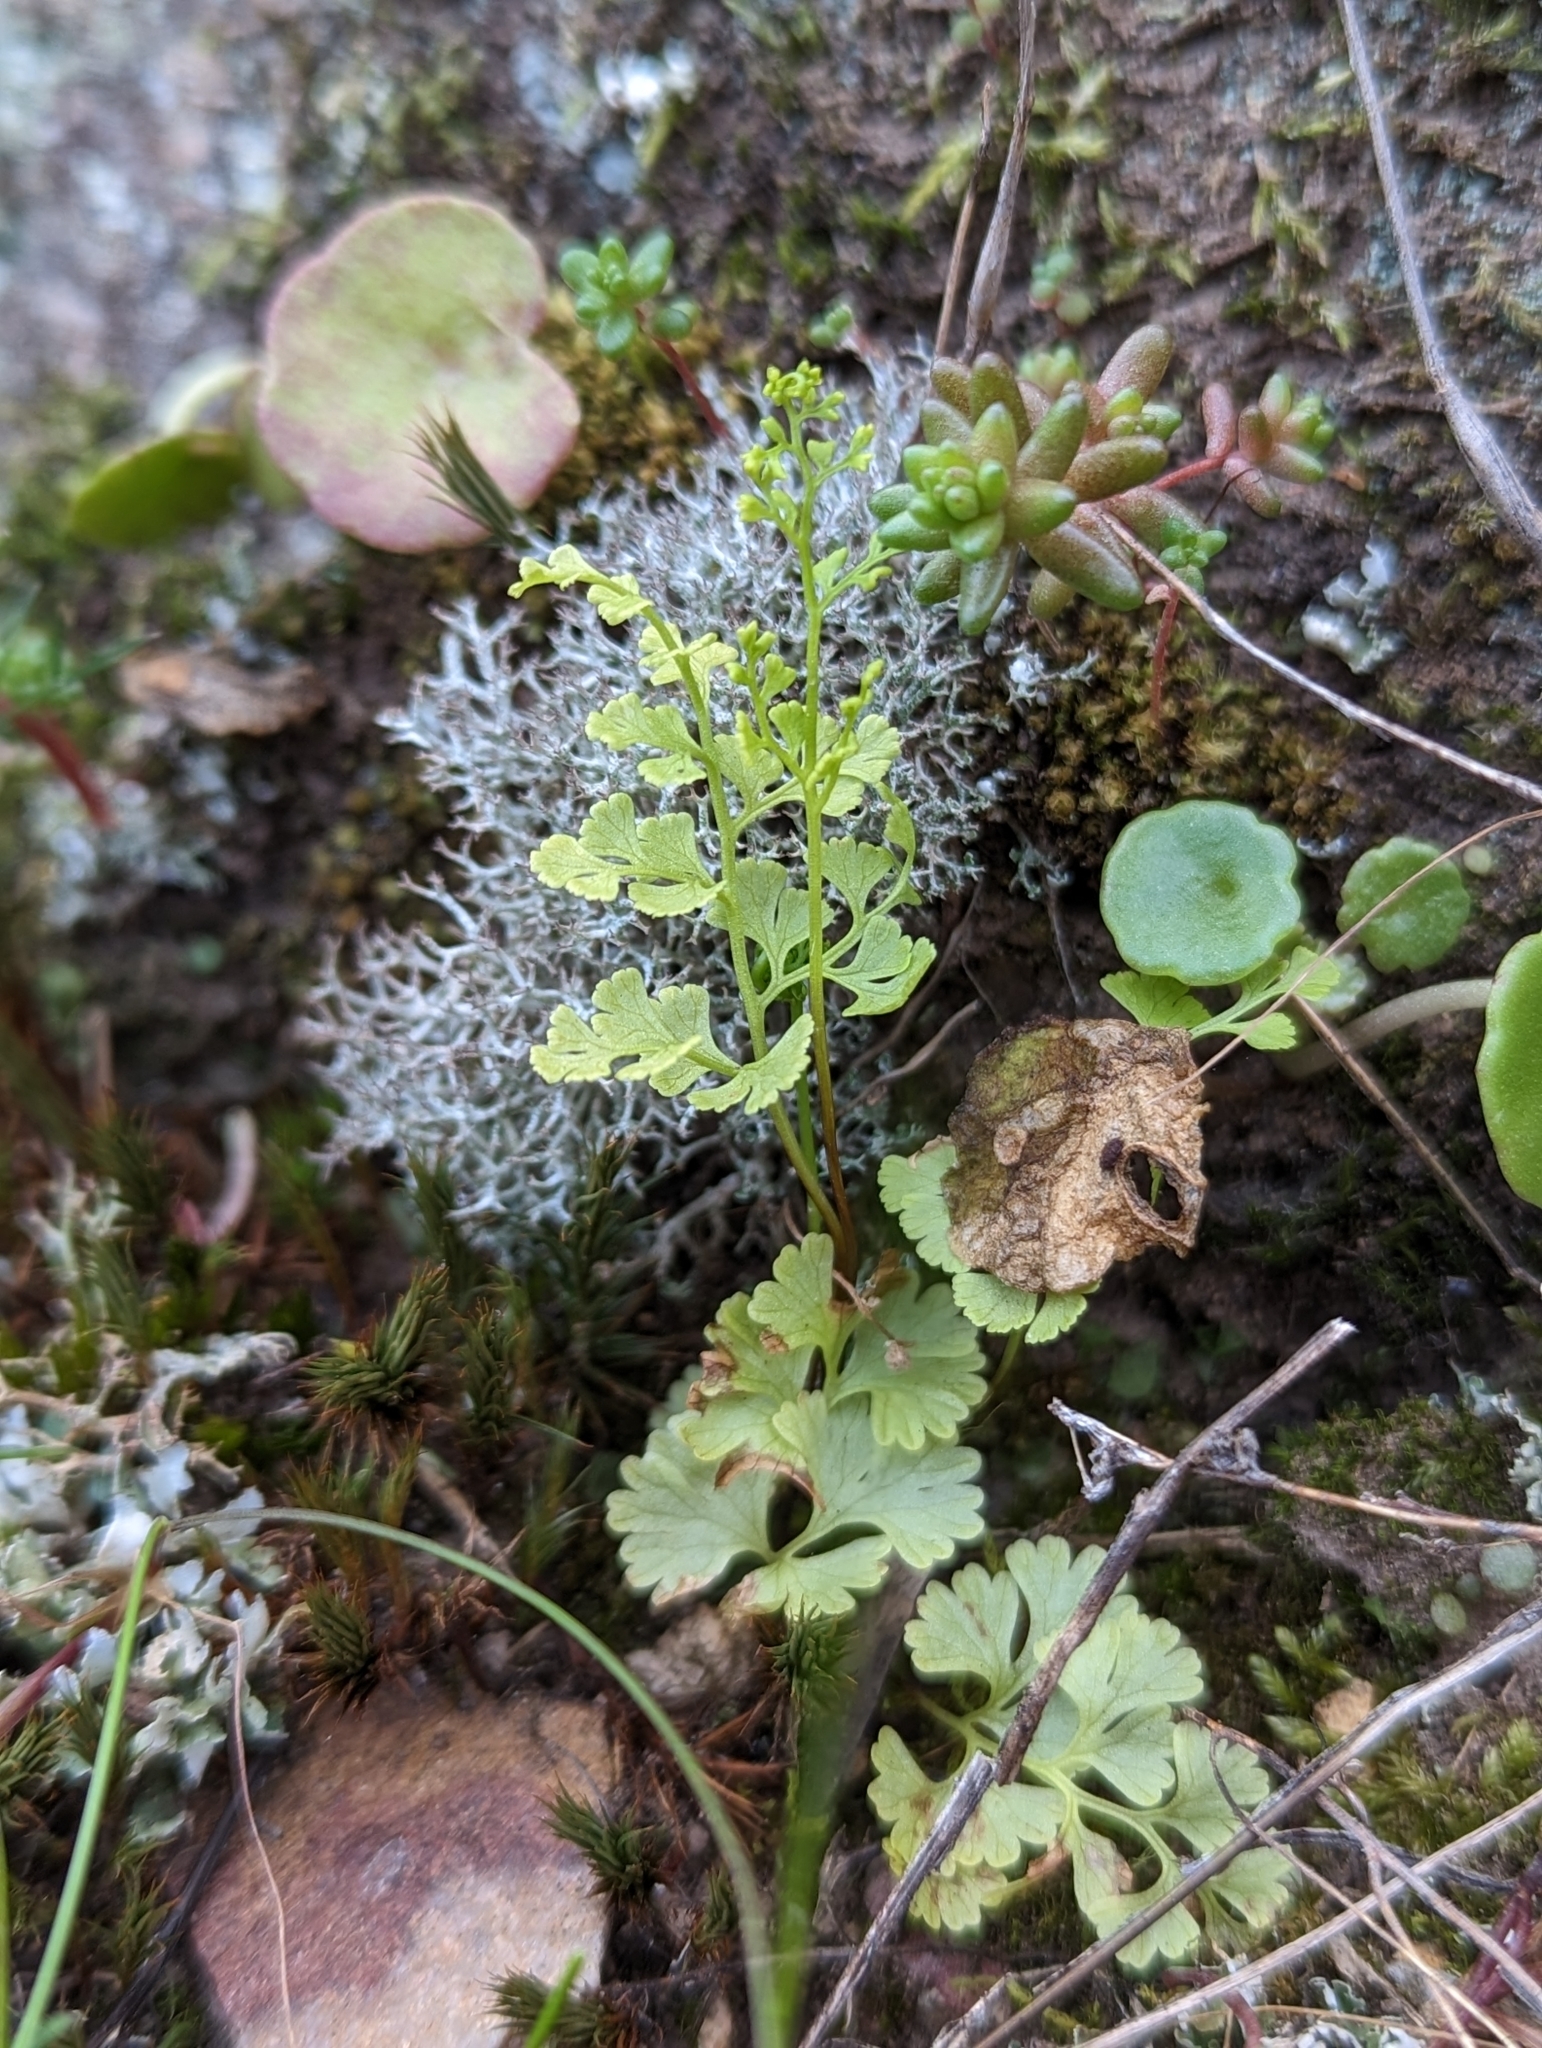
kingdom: Plantae
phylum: Tracheophyta
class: Polypodiopsida
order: Polypodiales
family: Pteridaceae
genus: Anogramma
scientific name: Anogramma leptophylla
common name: Jersey fern
